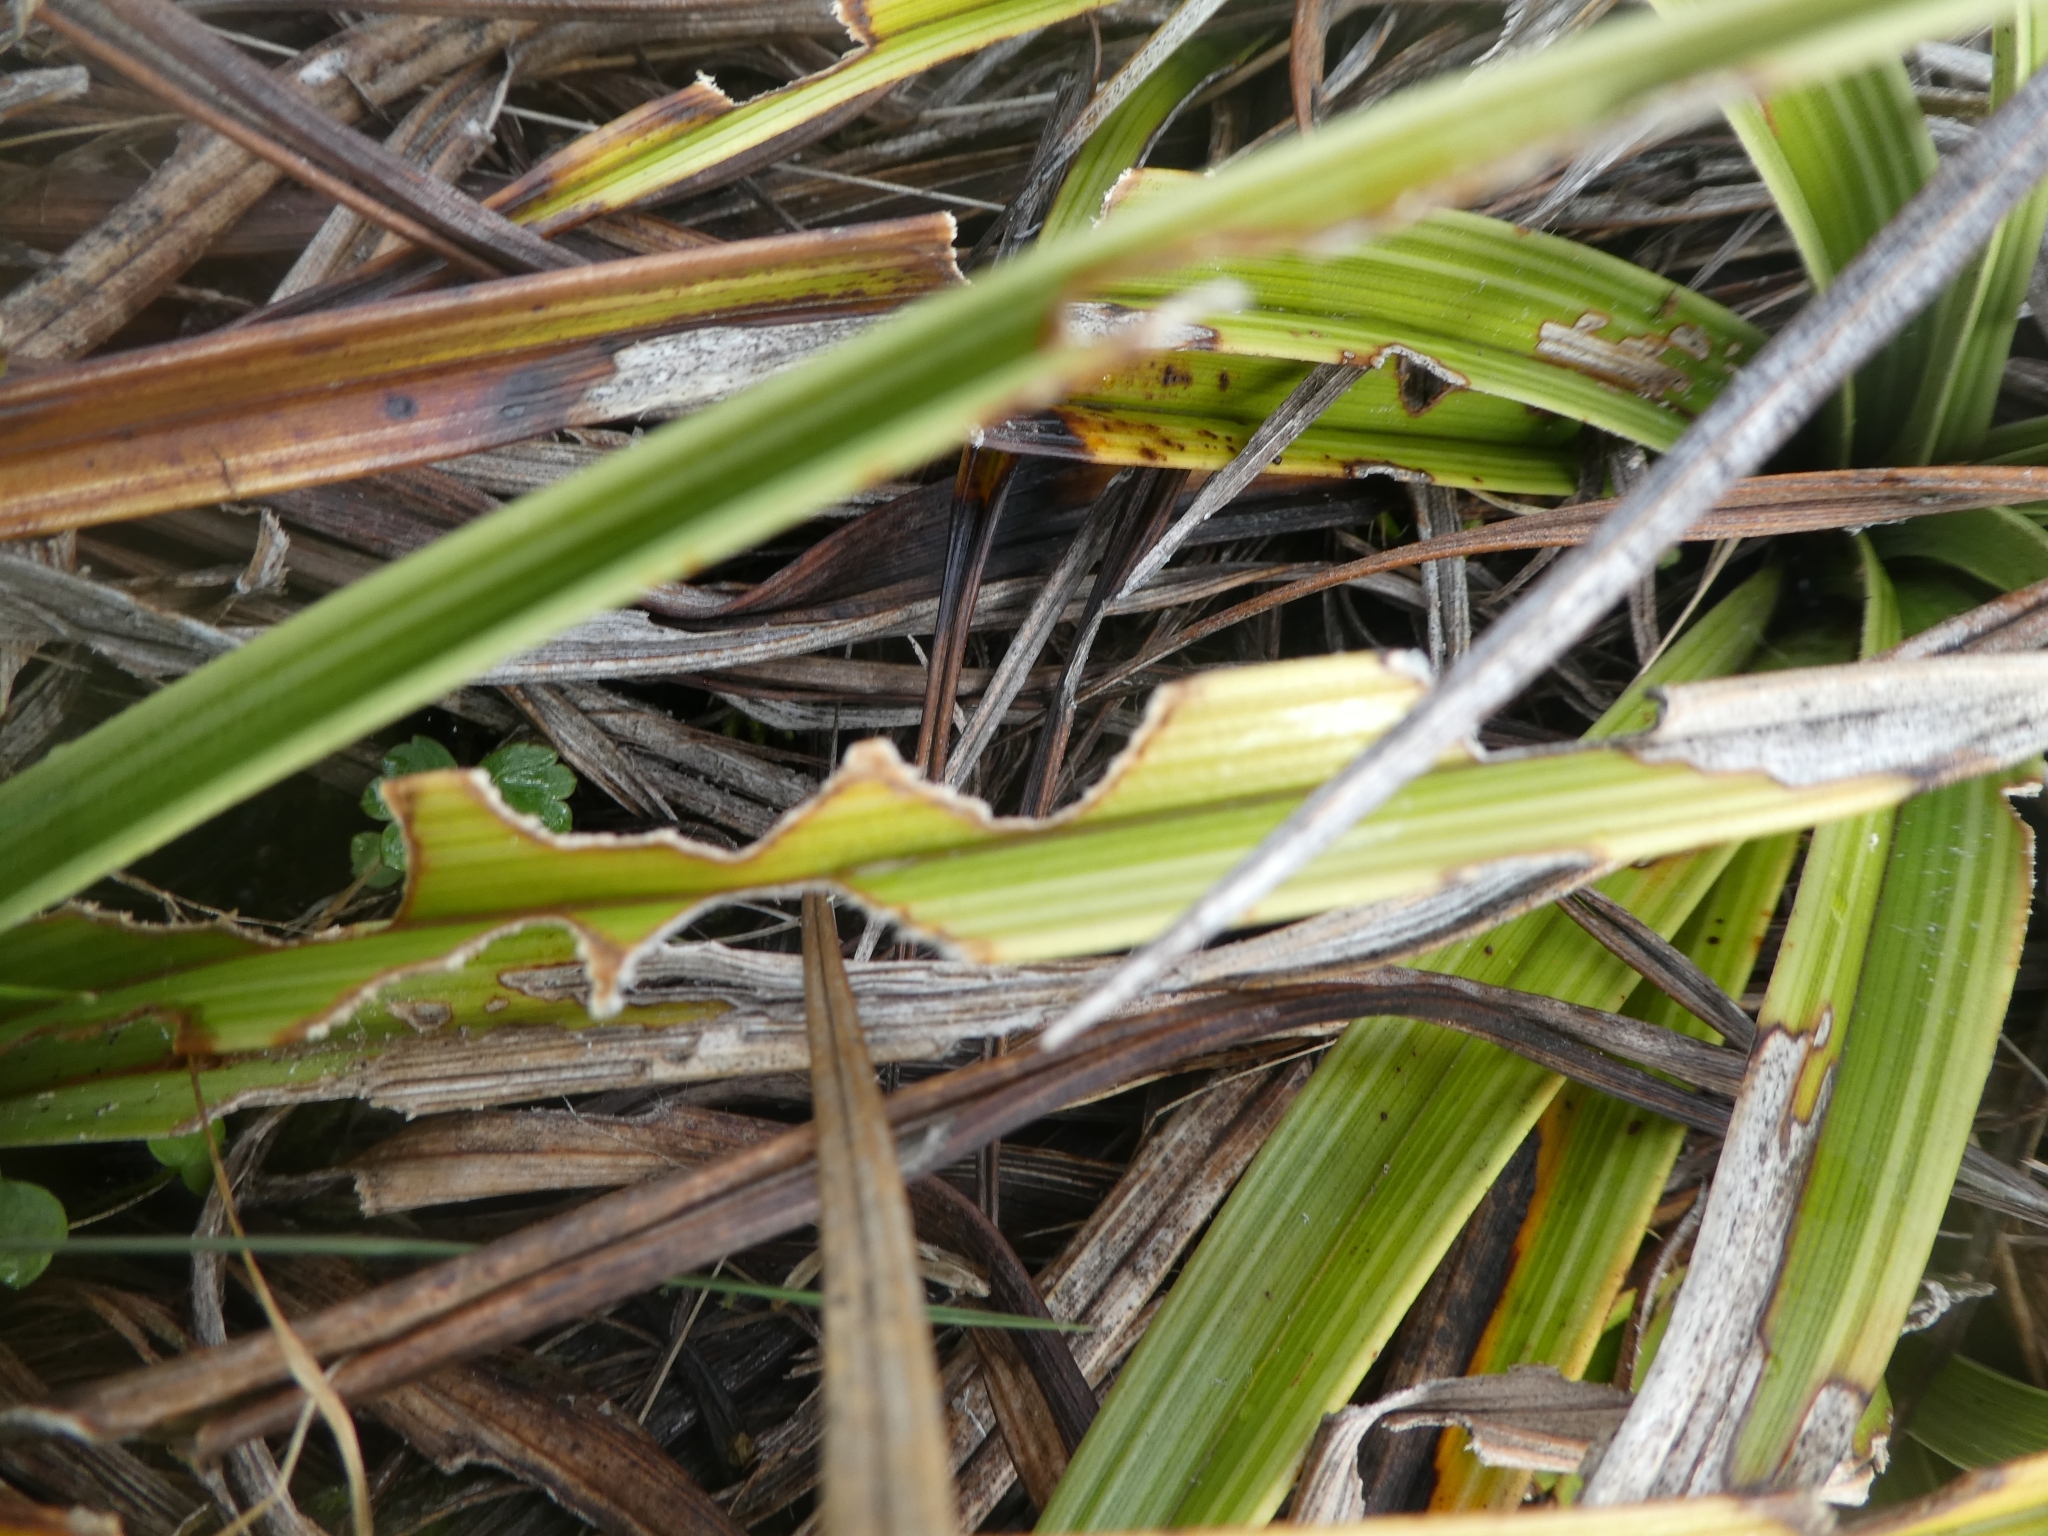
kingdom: Plantae
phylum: Tracheophyta
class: Liliopsida
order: Asparagales
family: Asteliaceae
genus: Astelia
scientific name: Astelia petriei
